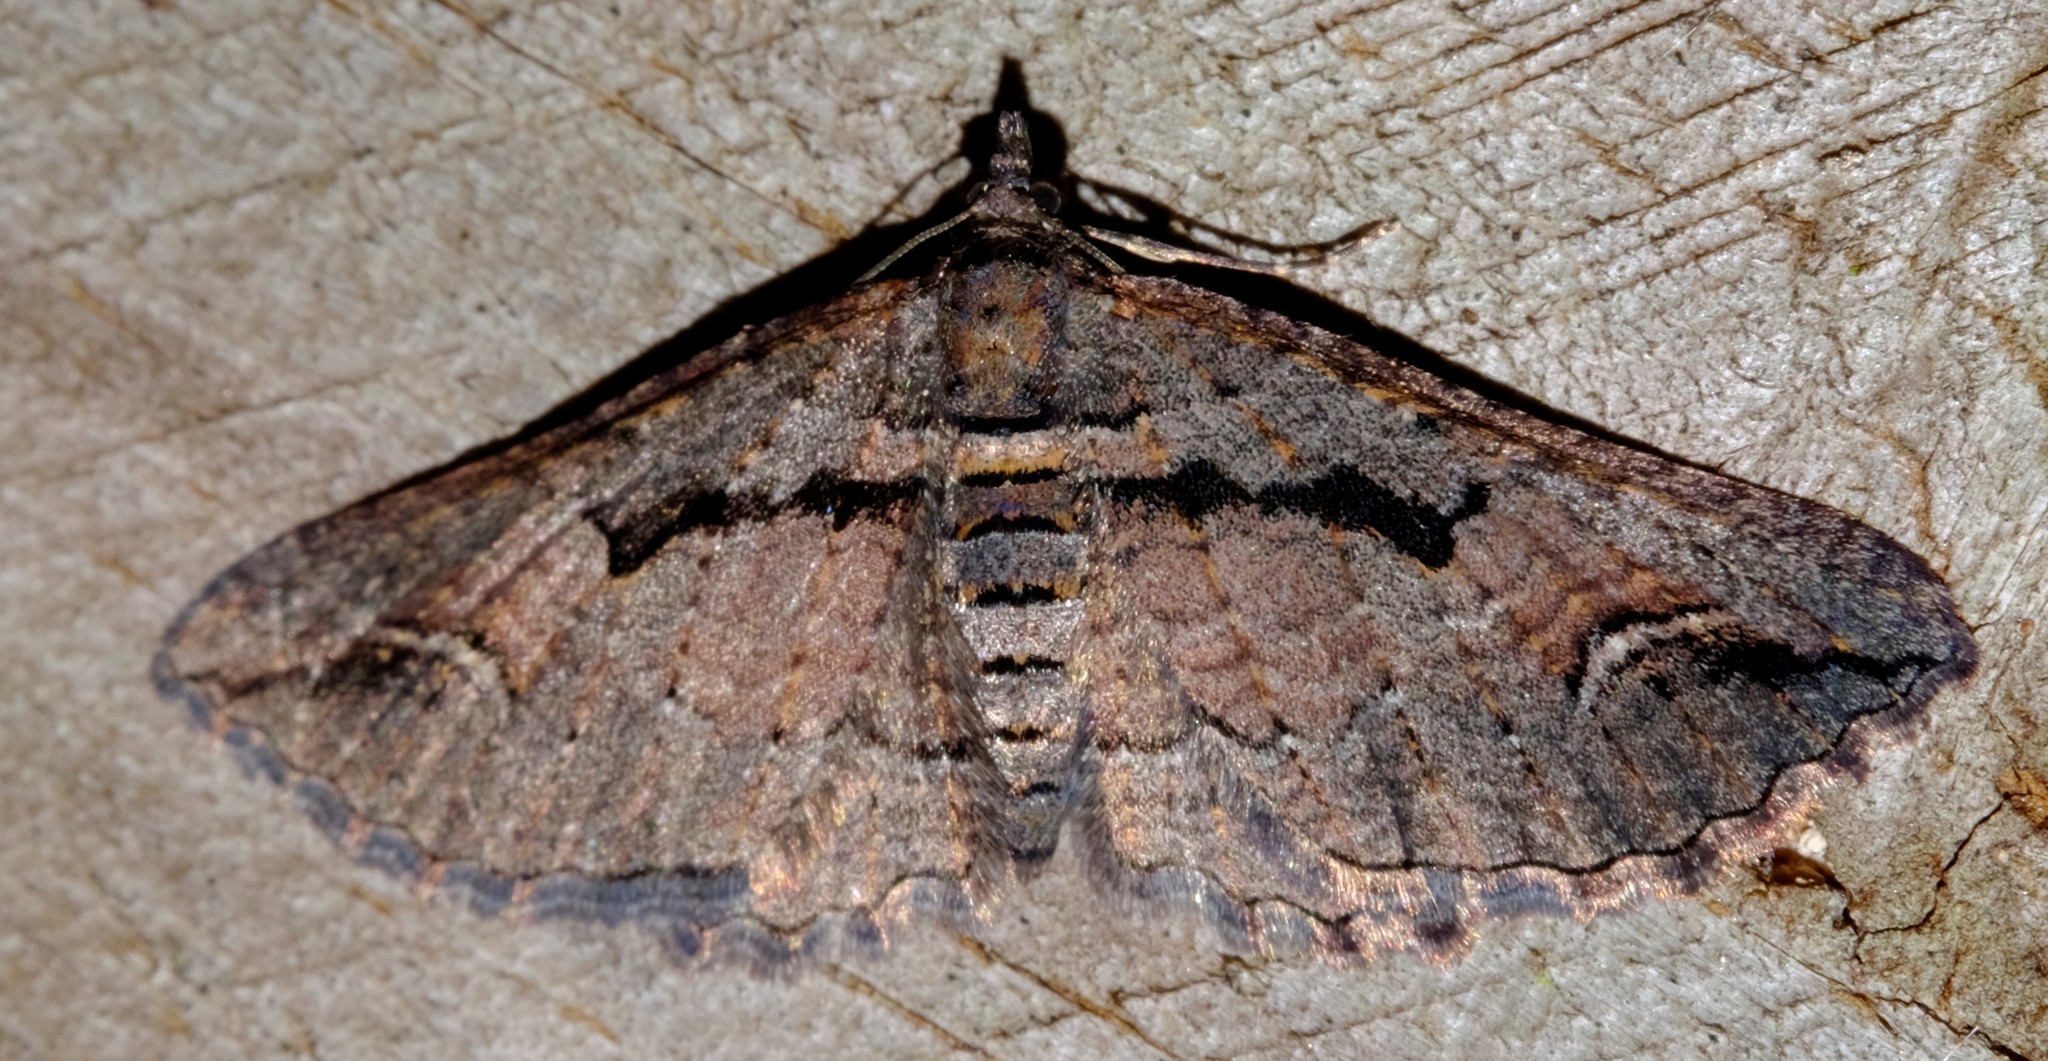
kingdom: Animalia
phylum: Arthropoda
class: Insecta
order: Lepidoptera
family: Geometridae
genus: Chrysolarentia
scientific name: Chrysolarentia plagiocausta
